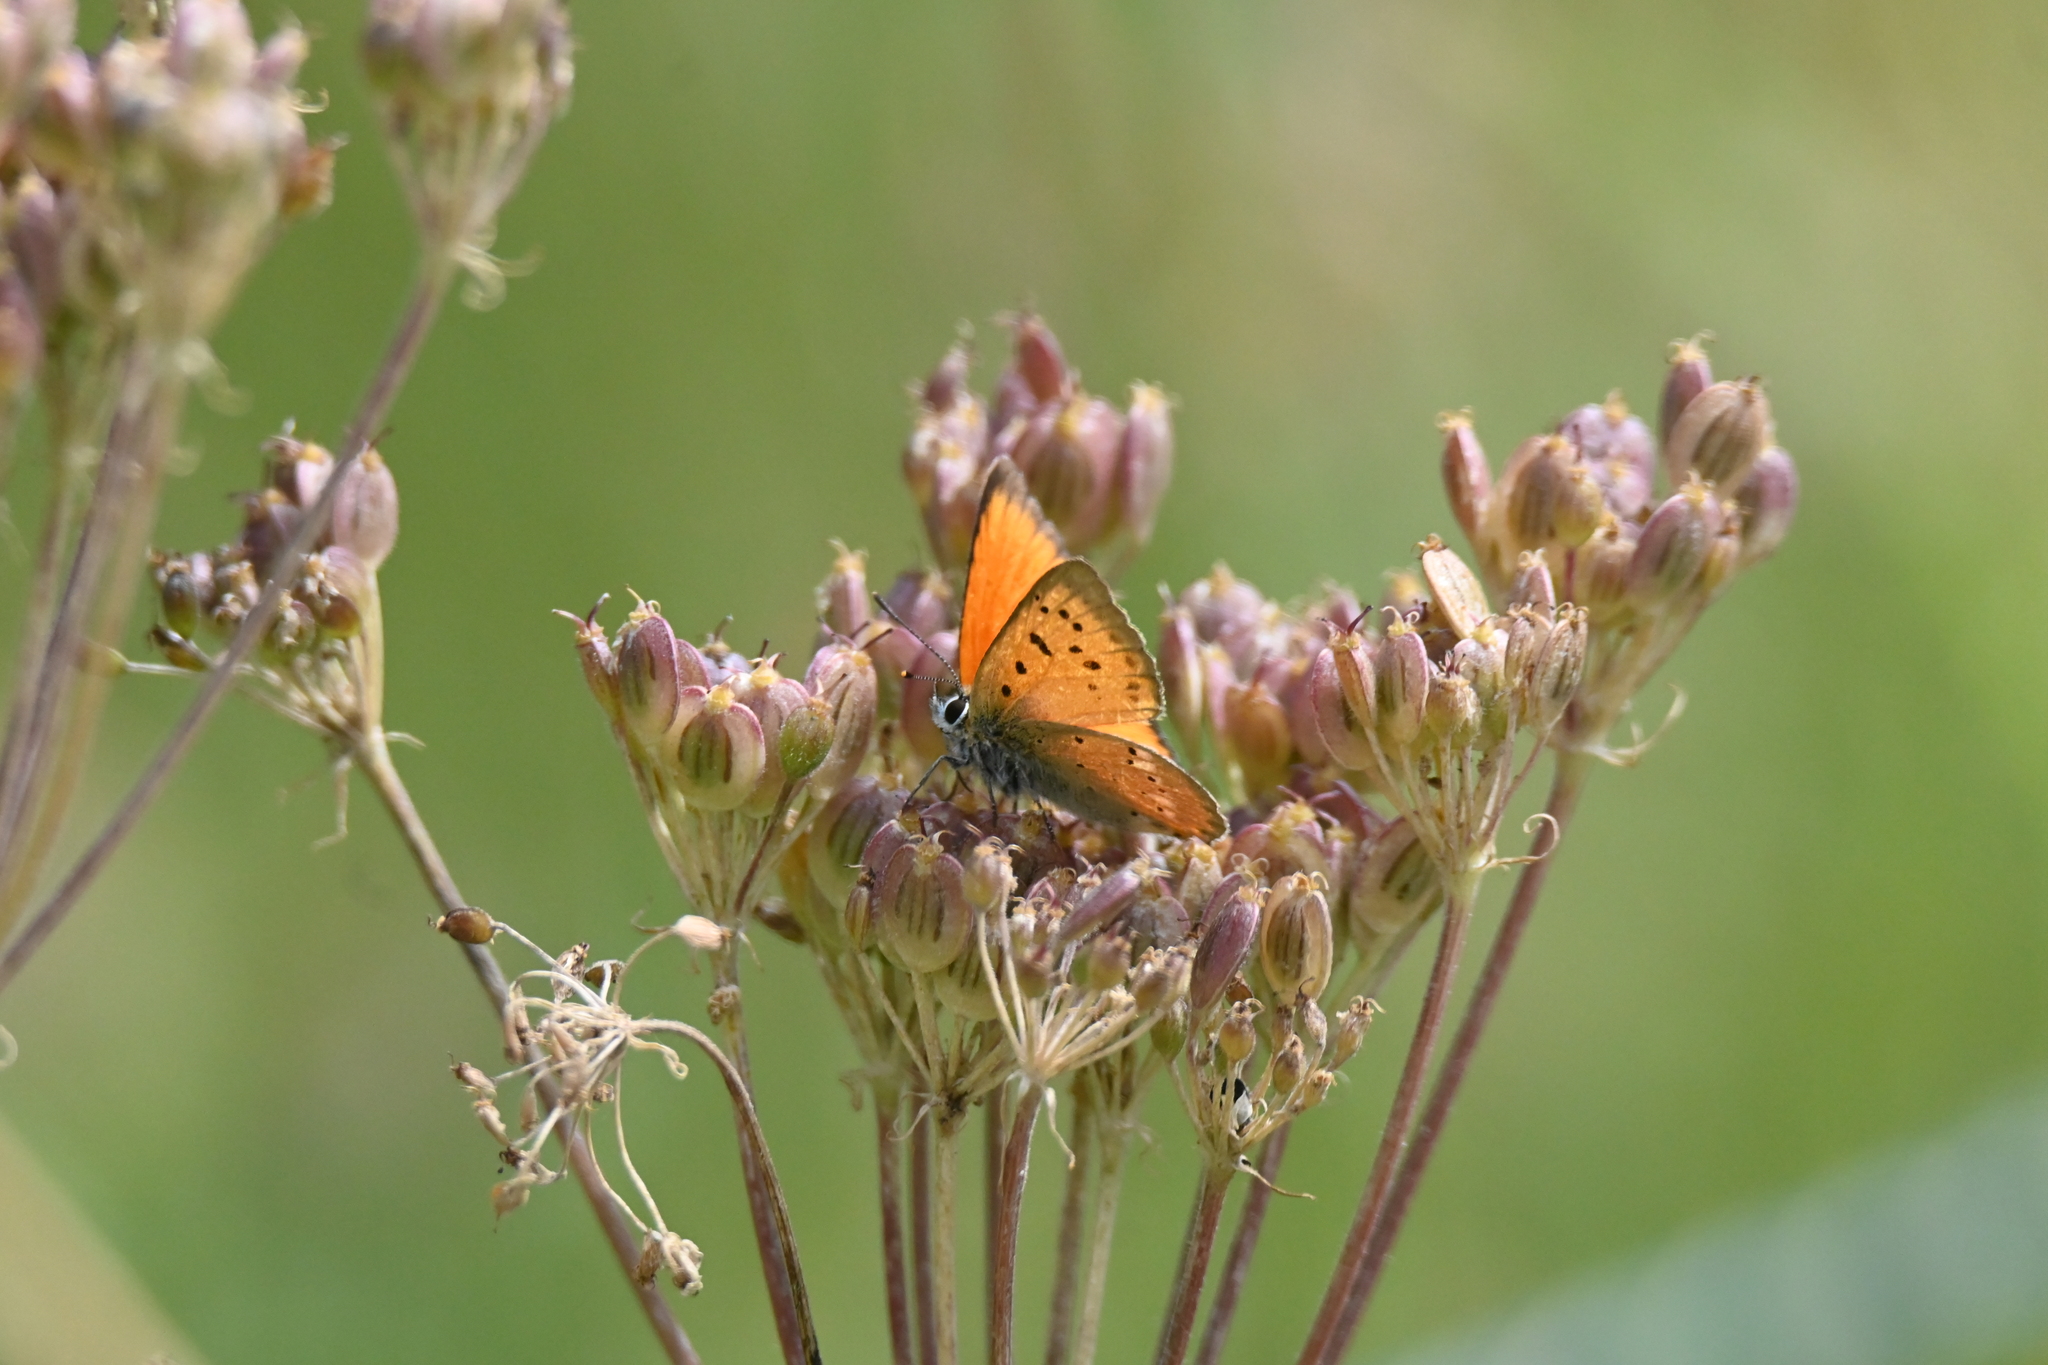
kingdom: Animalia
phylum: Arthropoda
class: Insecta
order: Lepidoptera
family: Lycaenidae
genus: Lycaena
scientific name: Lycaena virgaureae
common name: Scarce copper
